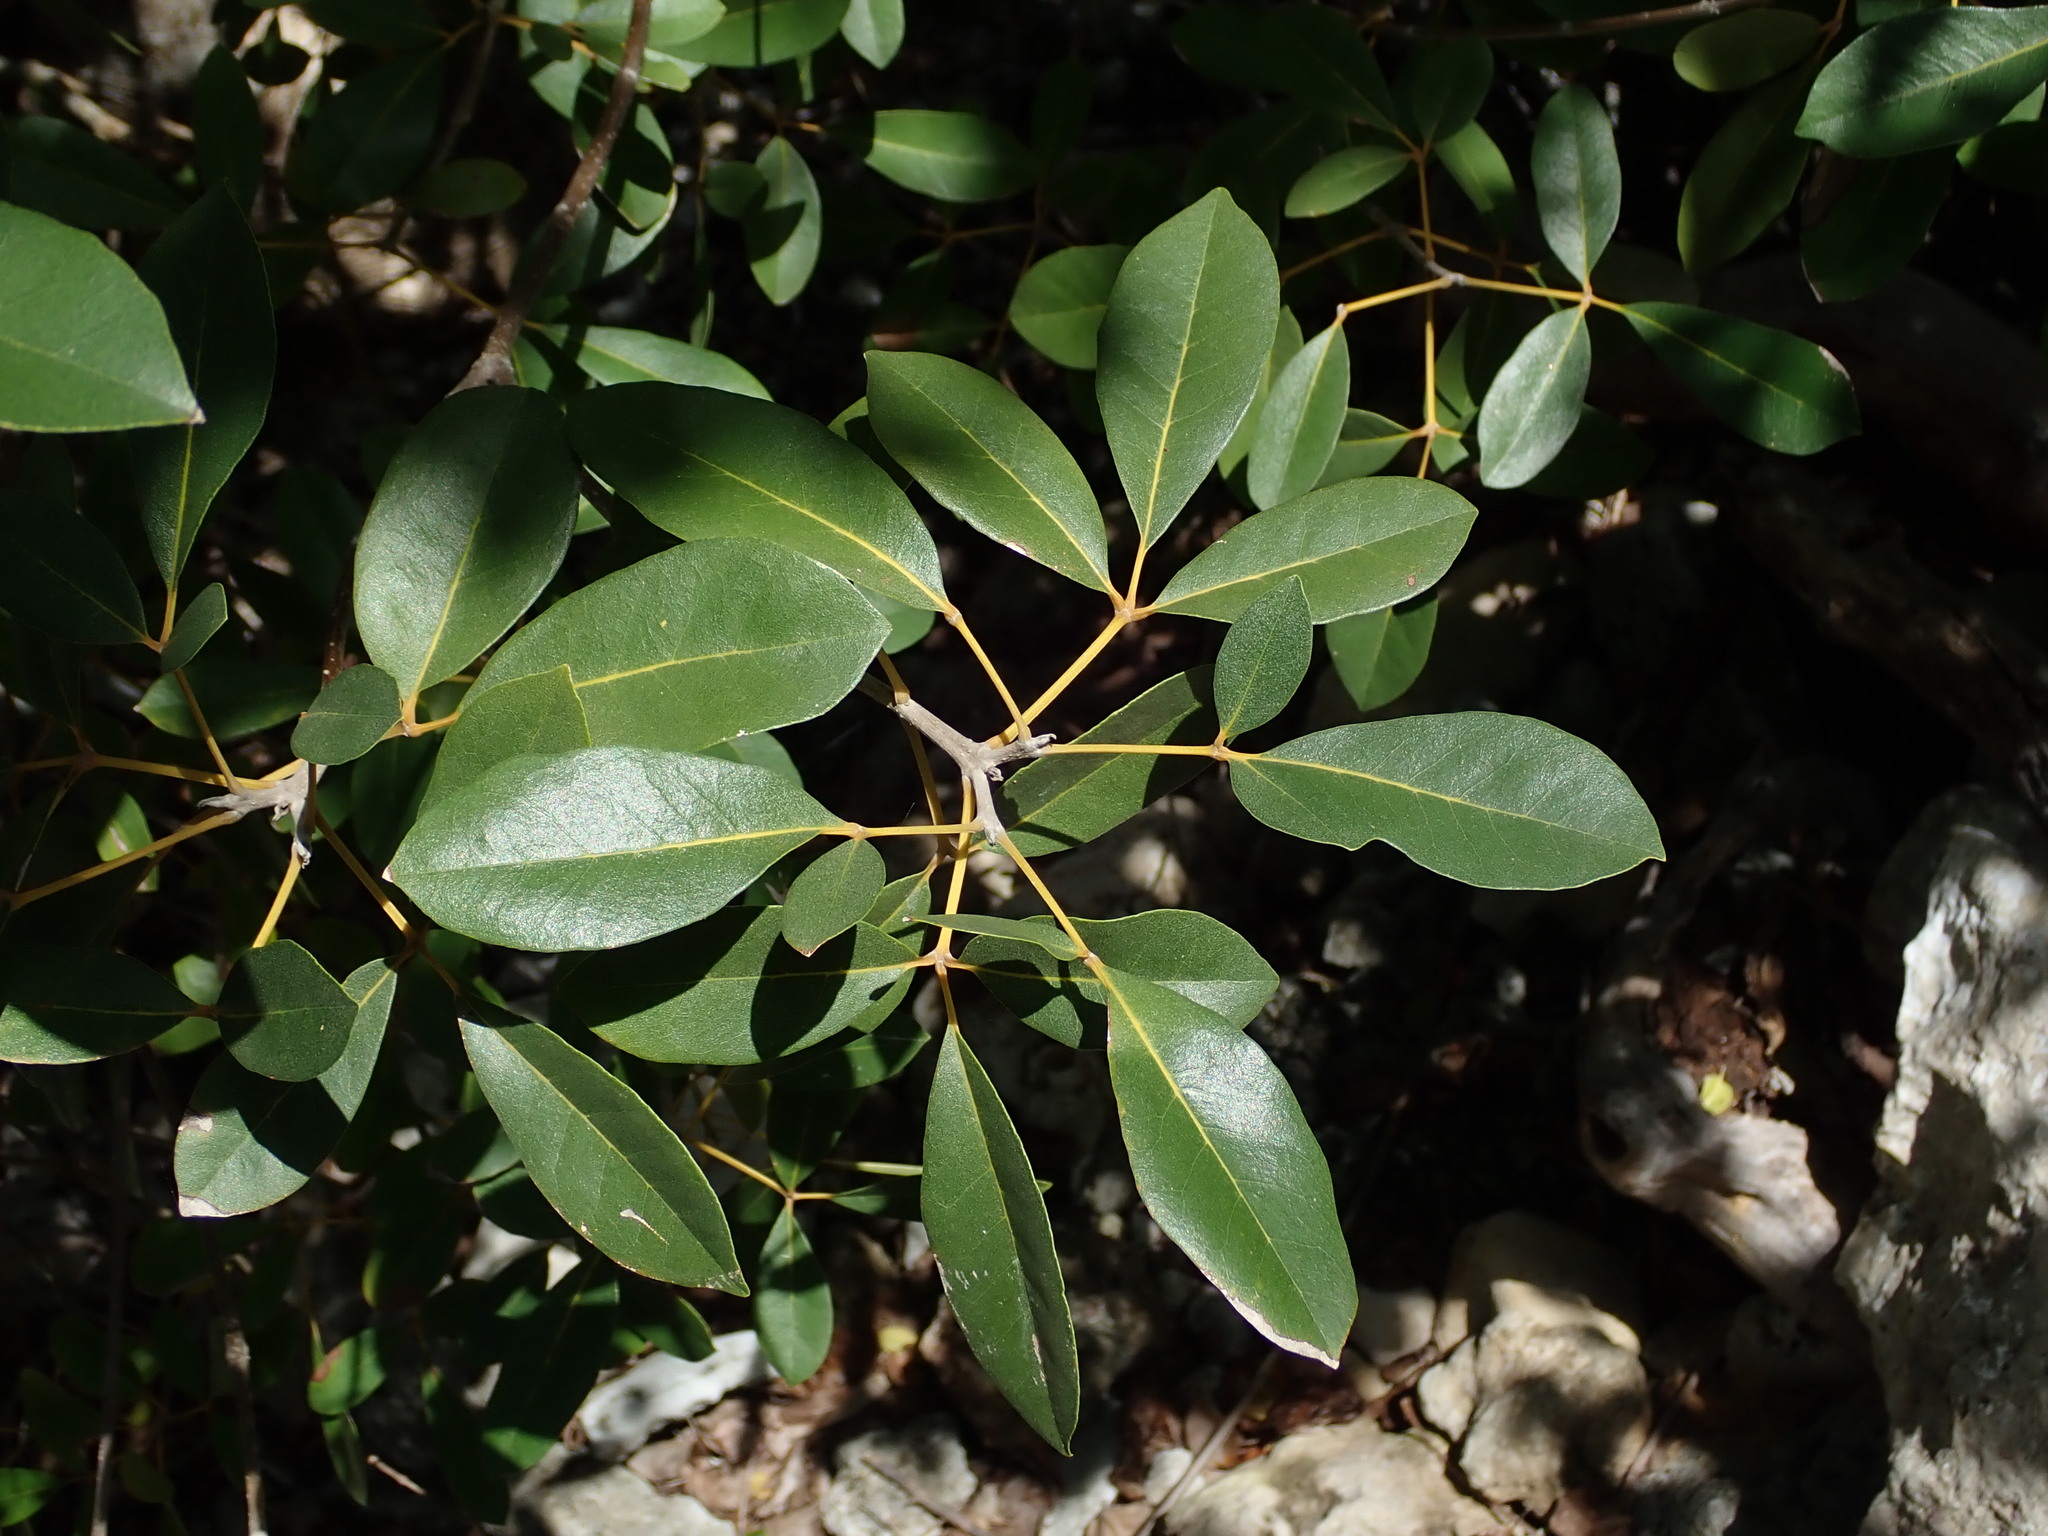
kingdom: Plantae
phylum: Tracheophyta
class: Magnoliopsida
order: Lamiales
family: Bignoniaceae
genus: Tabebuia
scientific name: Tabebuia heterophylla
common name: White cedar
